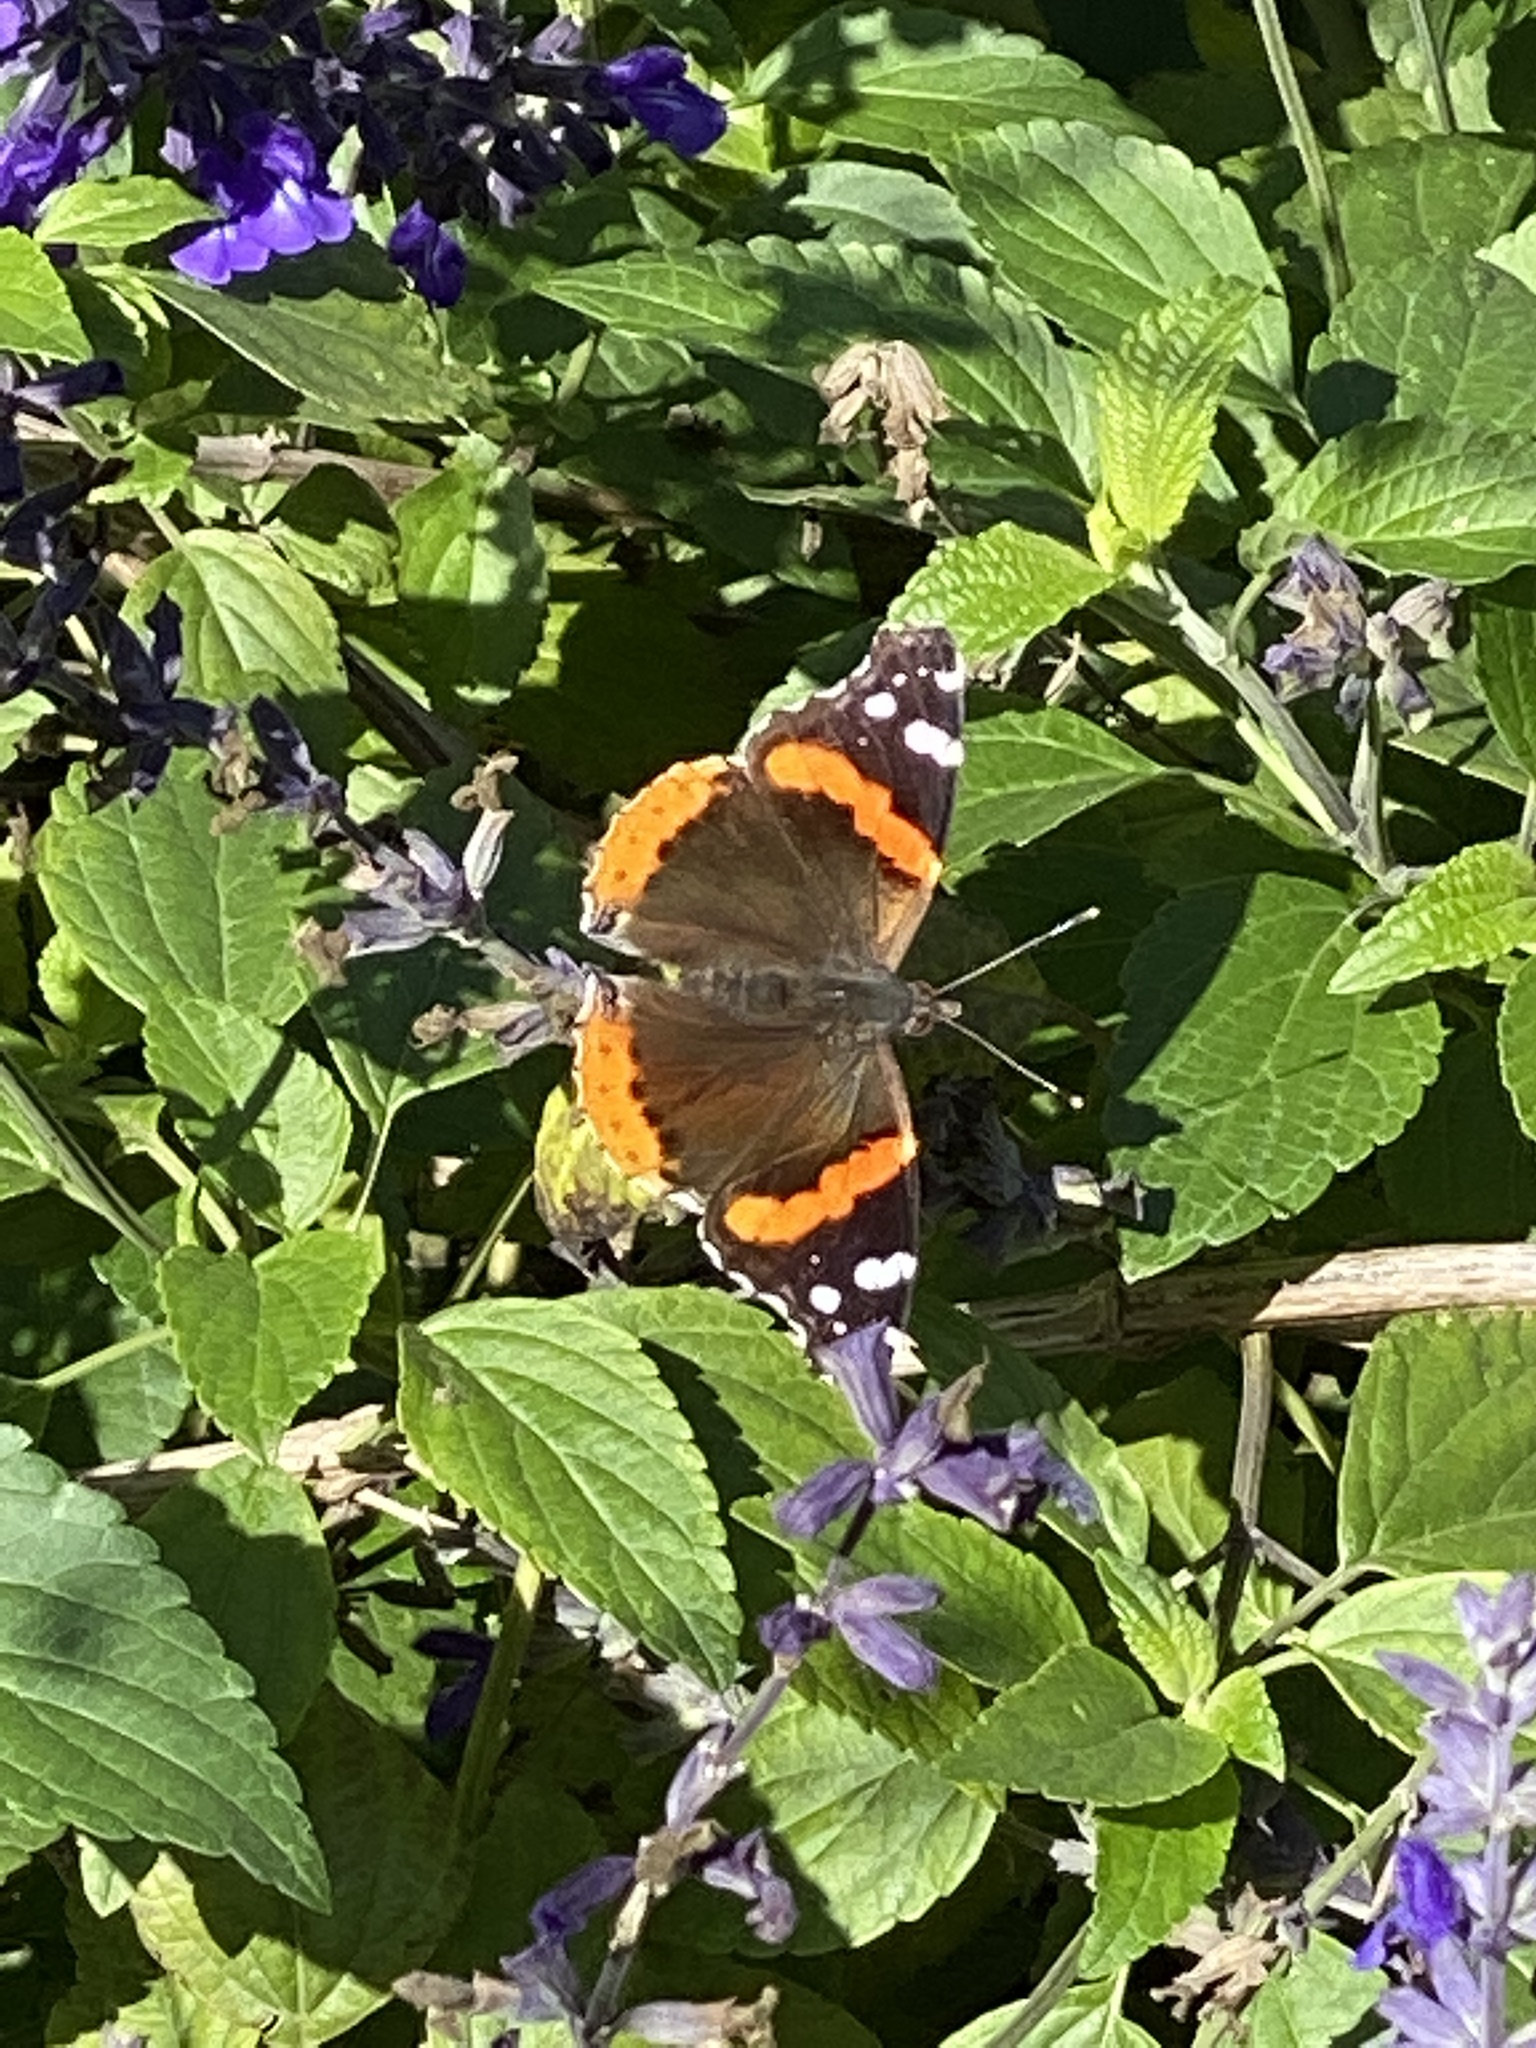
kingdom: Animalia
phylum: Arthropoda
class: Insecta
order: Lepidoptera
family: Nymphalidae
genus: Vanessa
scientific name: Vanessa atalanta
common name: Red admiral
